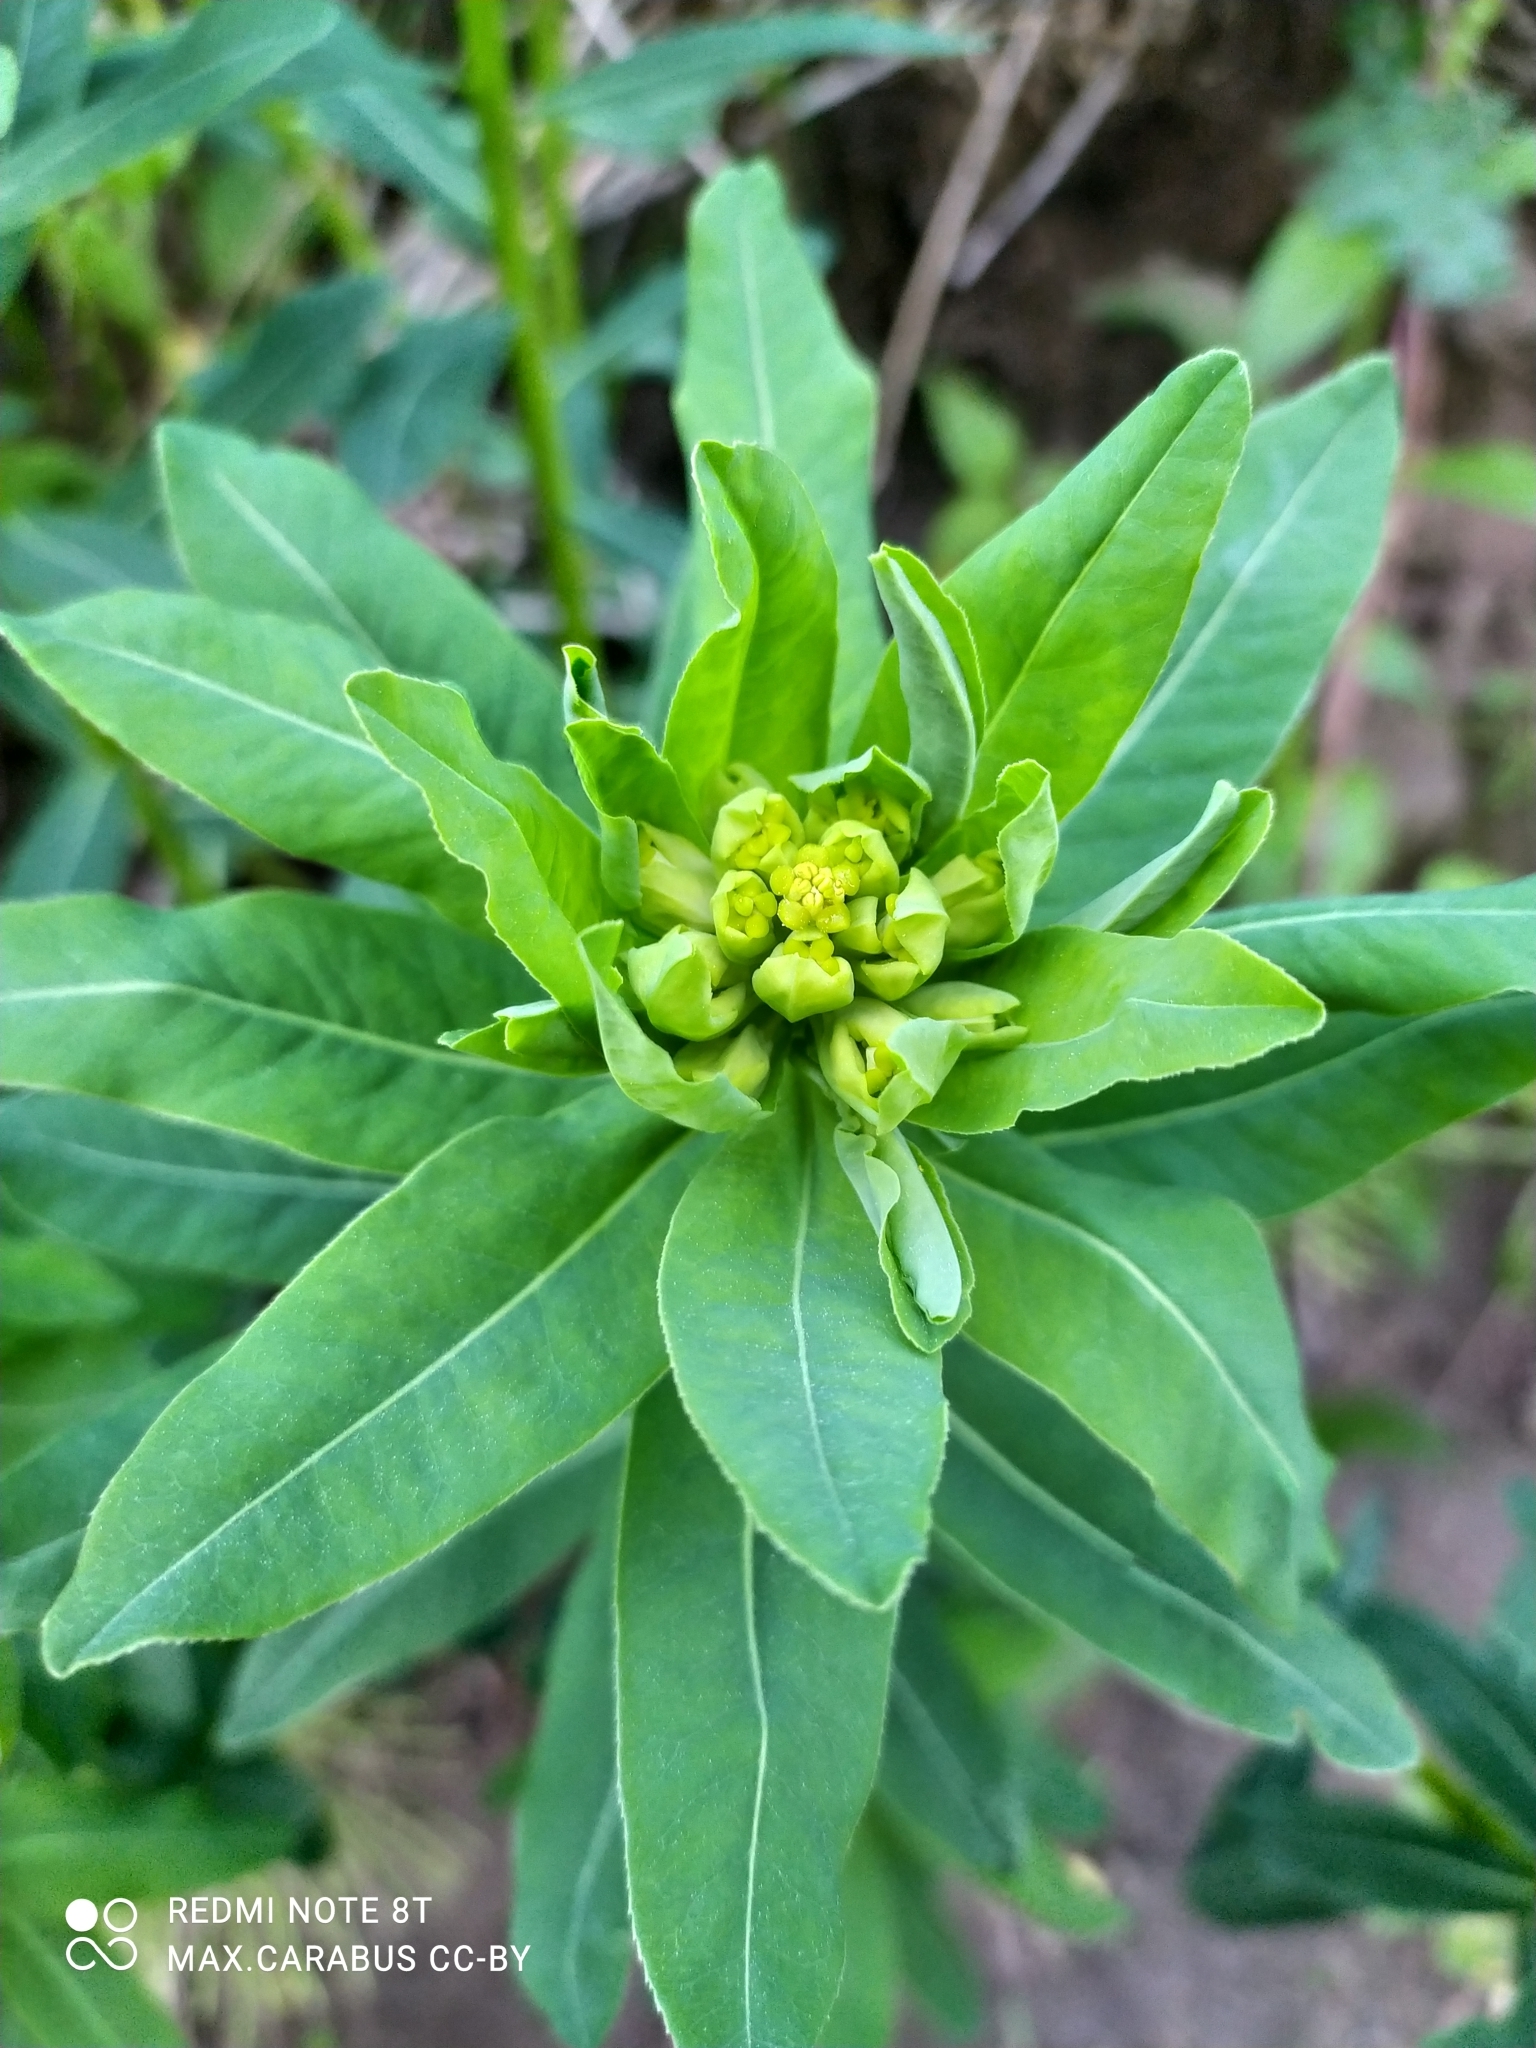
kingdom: Plantae
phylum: Tracheophyta
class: Magnoliopsida
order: Malpighiales
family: Euphorbiaceae
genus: Euphorbia
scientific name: Euphorbia semivillosa
